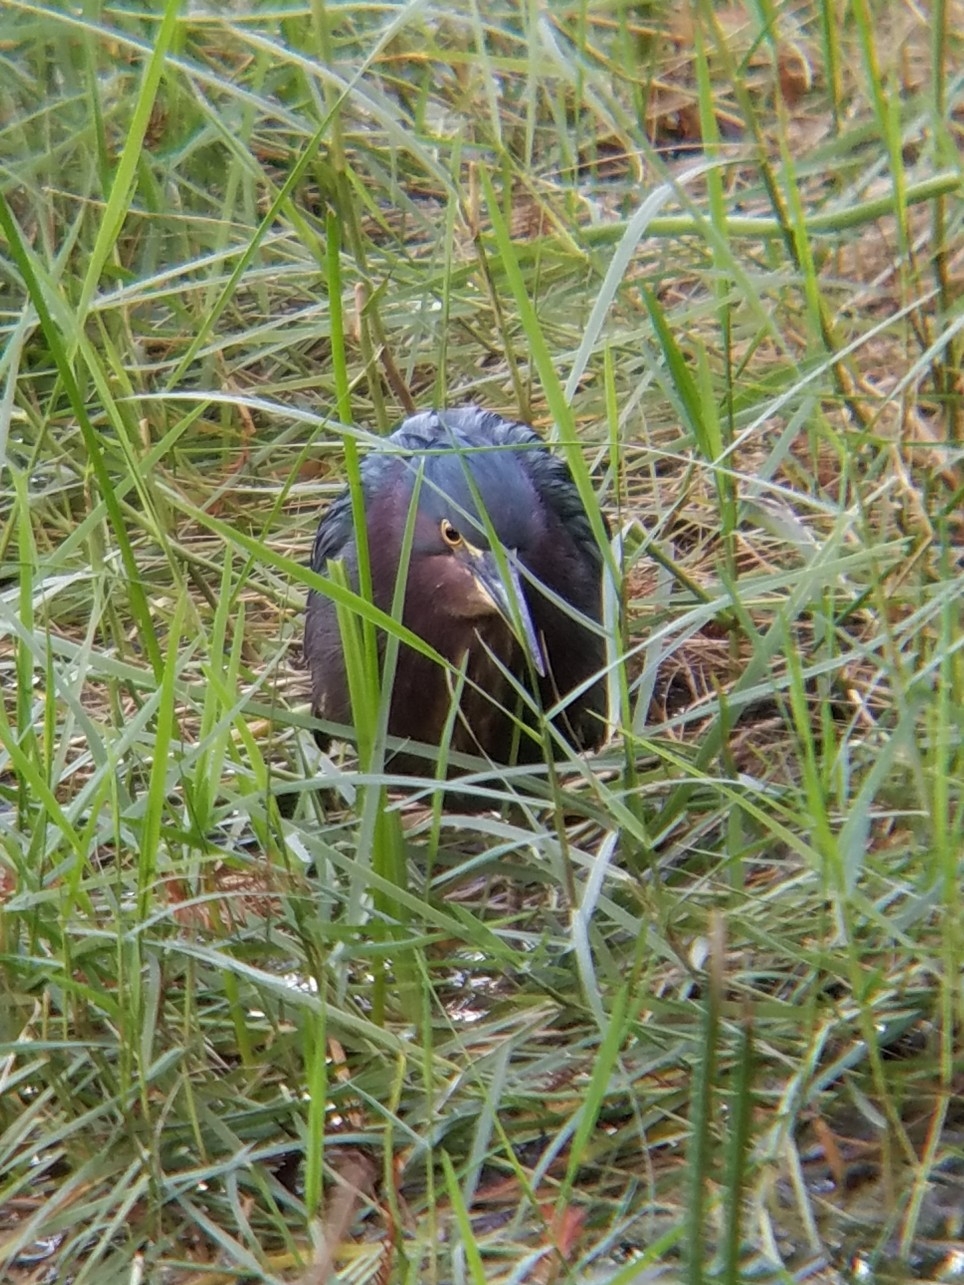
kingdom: Animalia
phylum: Chordata
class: Aves
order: Pelecaniformes
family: Ardeidae
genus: Butorides
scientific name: Butorides virescens
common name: Green heron
